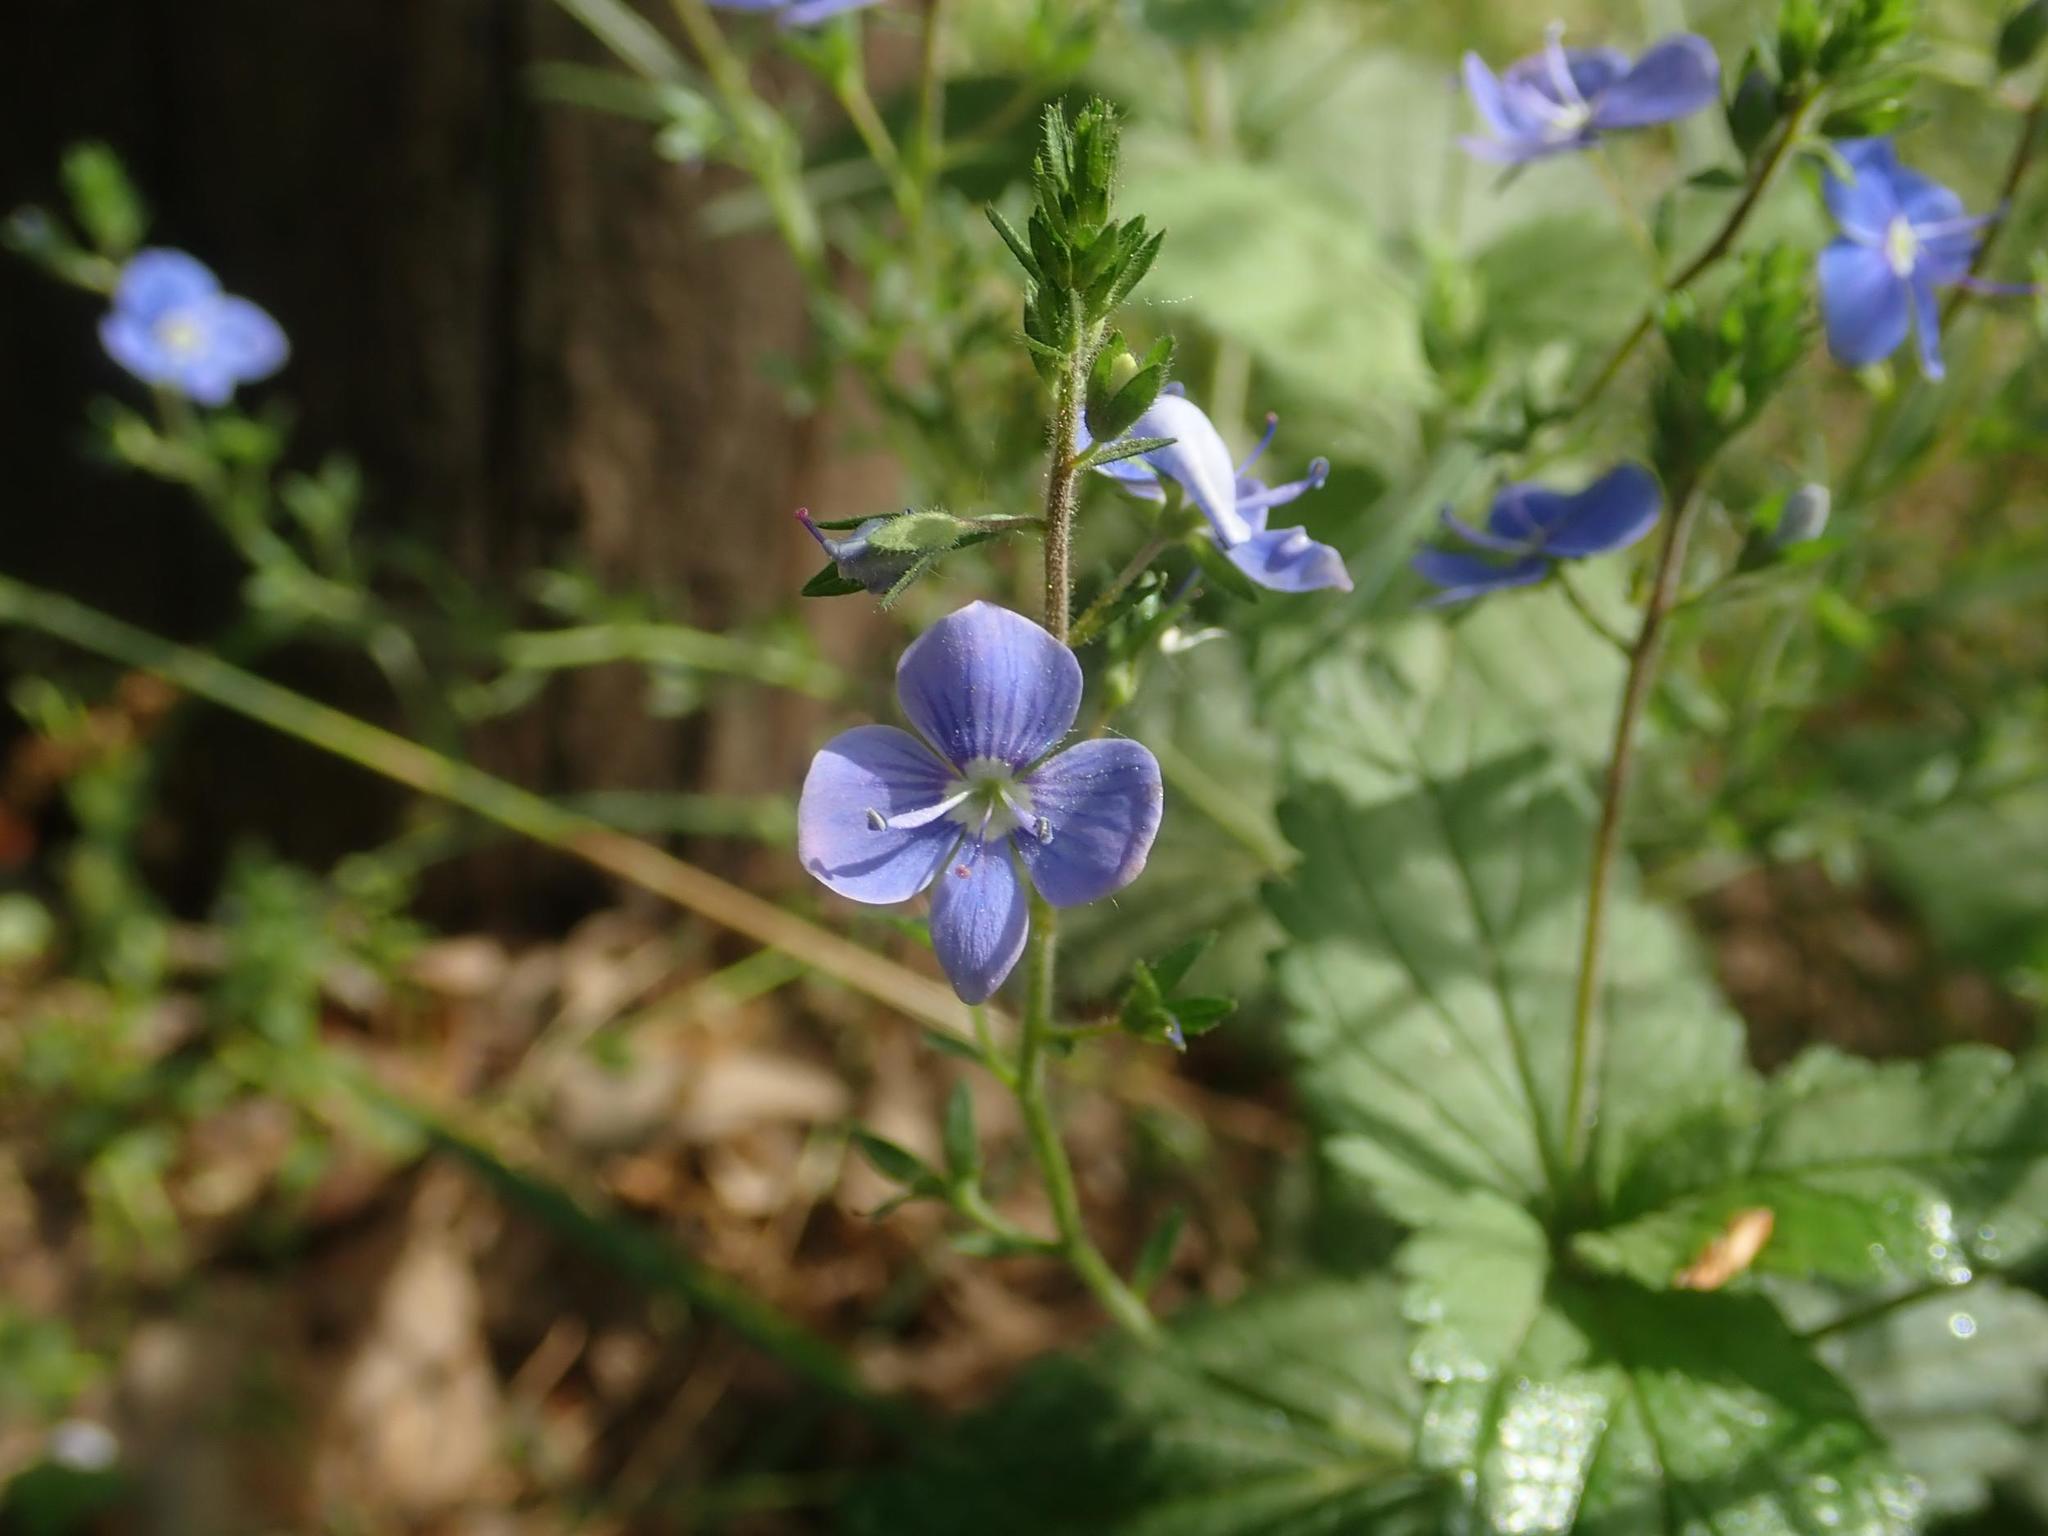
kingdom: Plantae
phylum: Tracheophyta
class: Magnoliopsida
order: Lamiales
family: Plantaginaceae
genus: Veronica
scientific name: Veronica chamaedrys
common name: Germander speedwell
